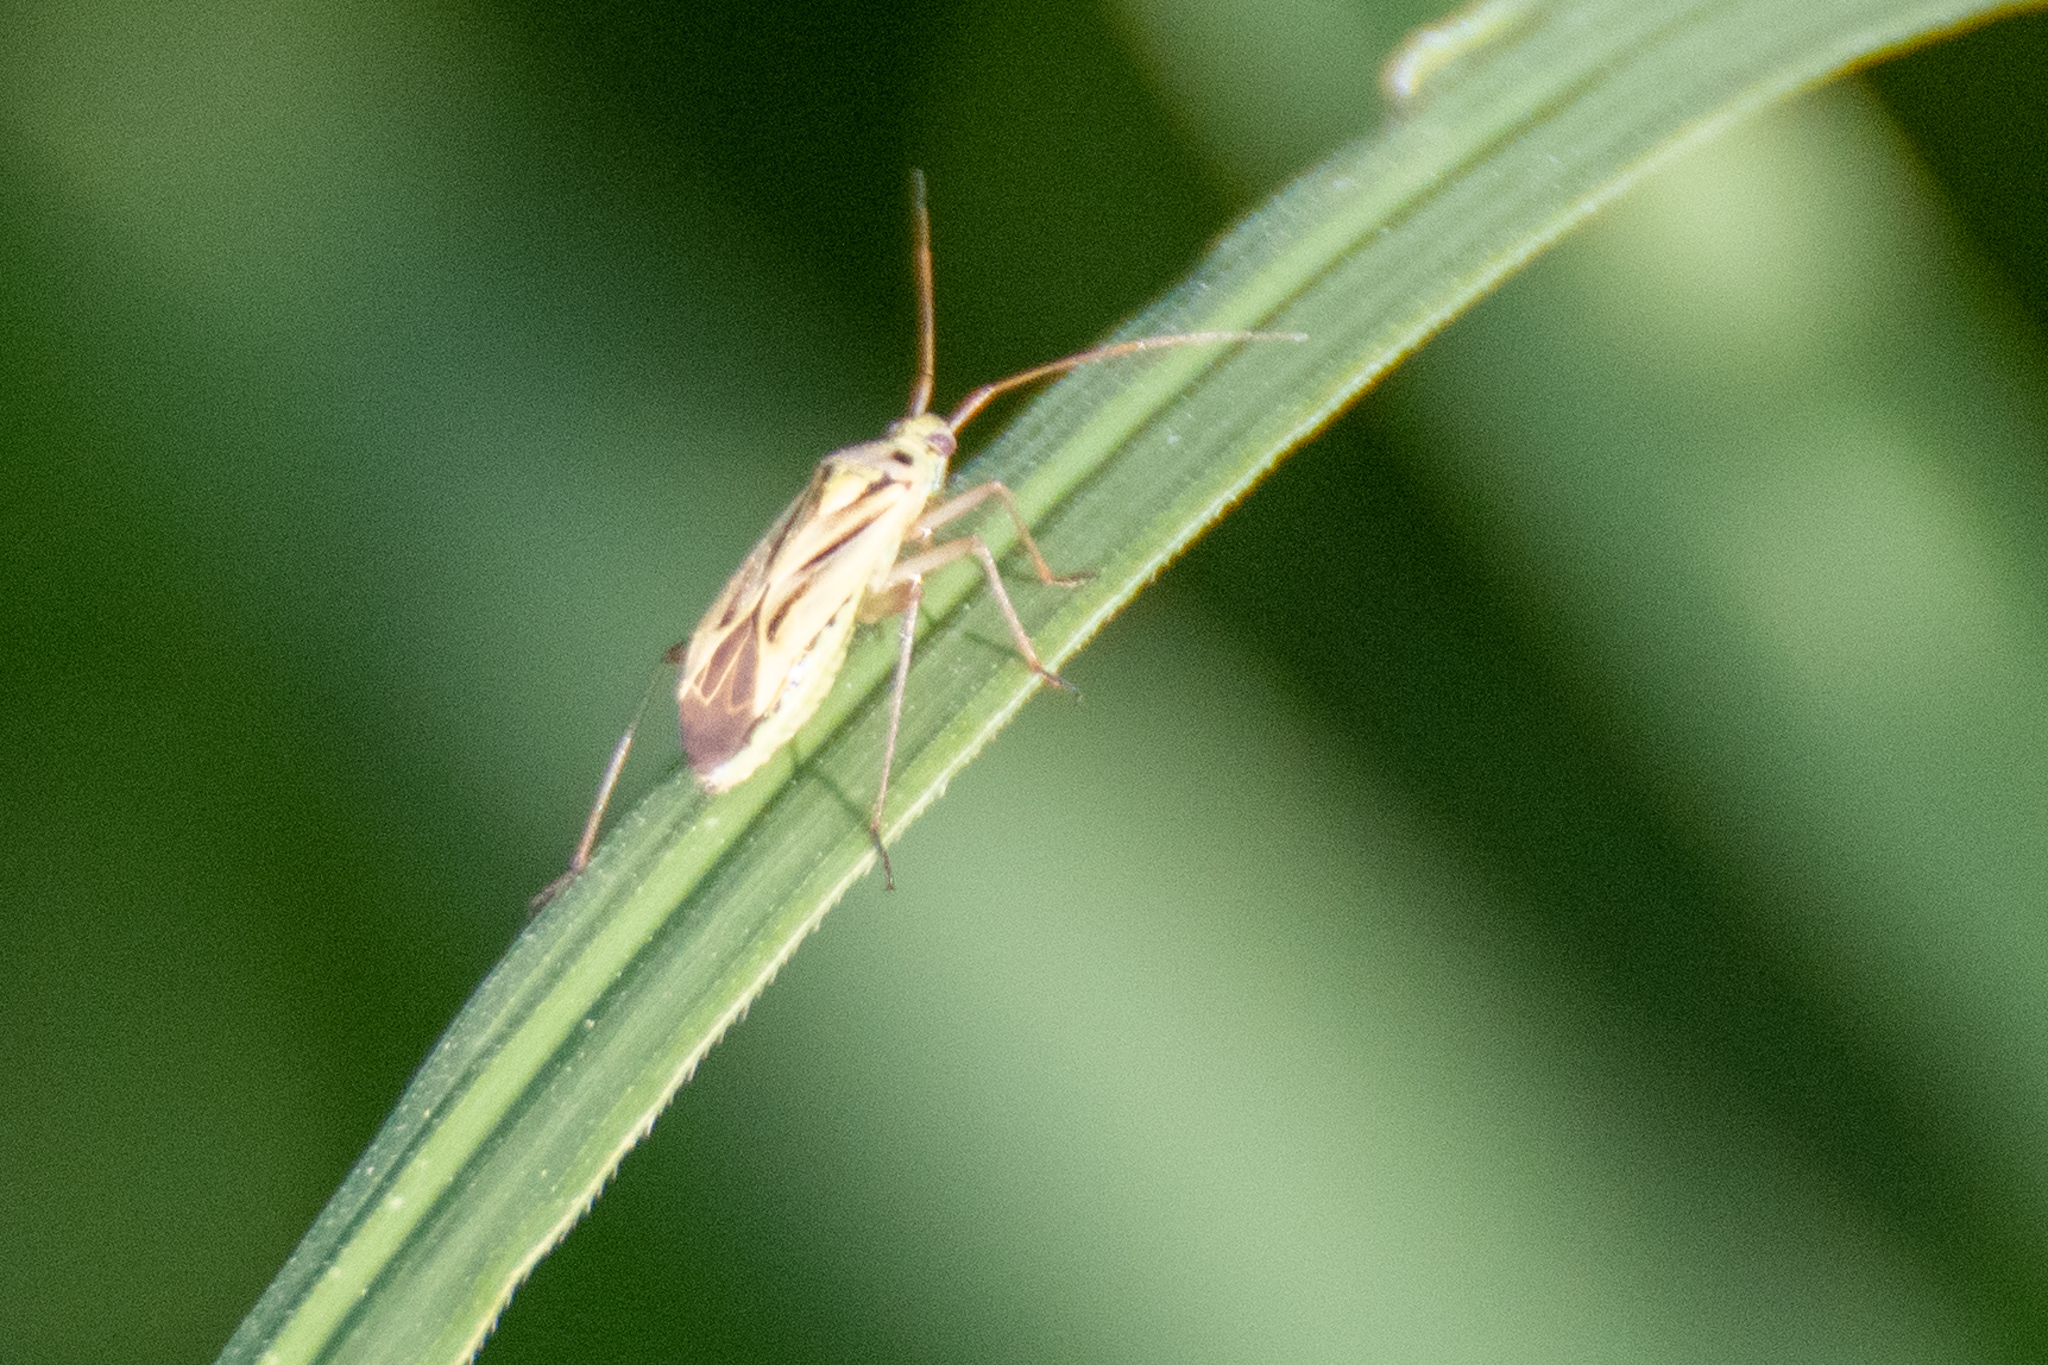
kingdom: Animalia
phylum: Arthropoda
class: Insecta
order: Hemiptera
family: Miridae
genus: Stenotus
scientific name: Stenotus binotatus
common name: Plant bug
